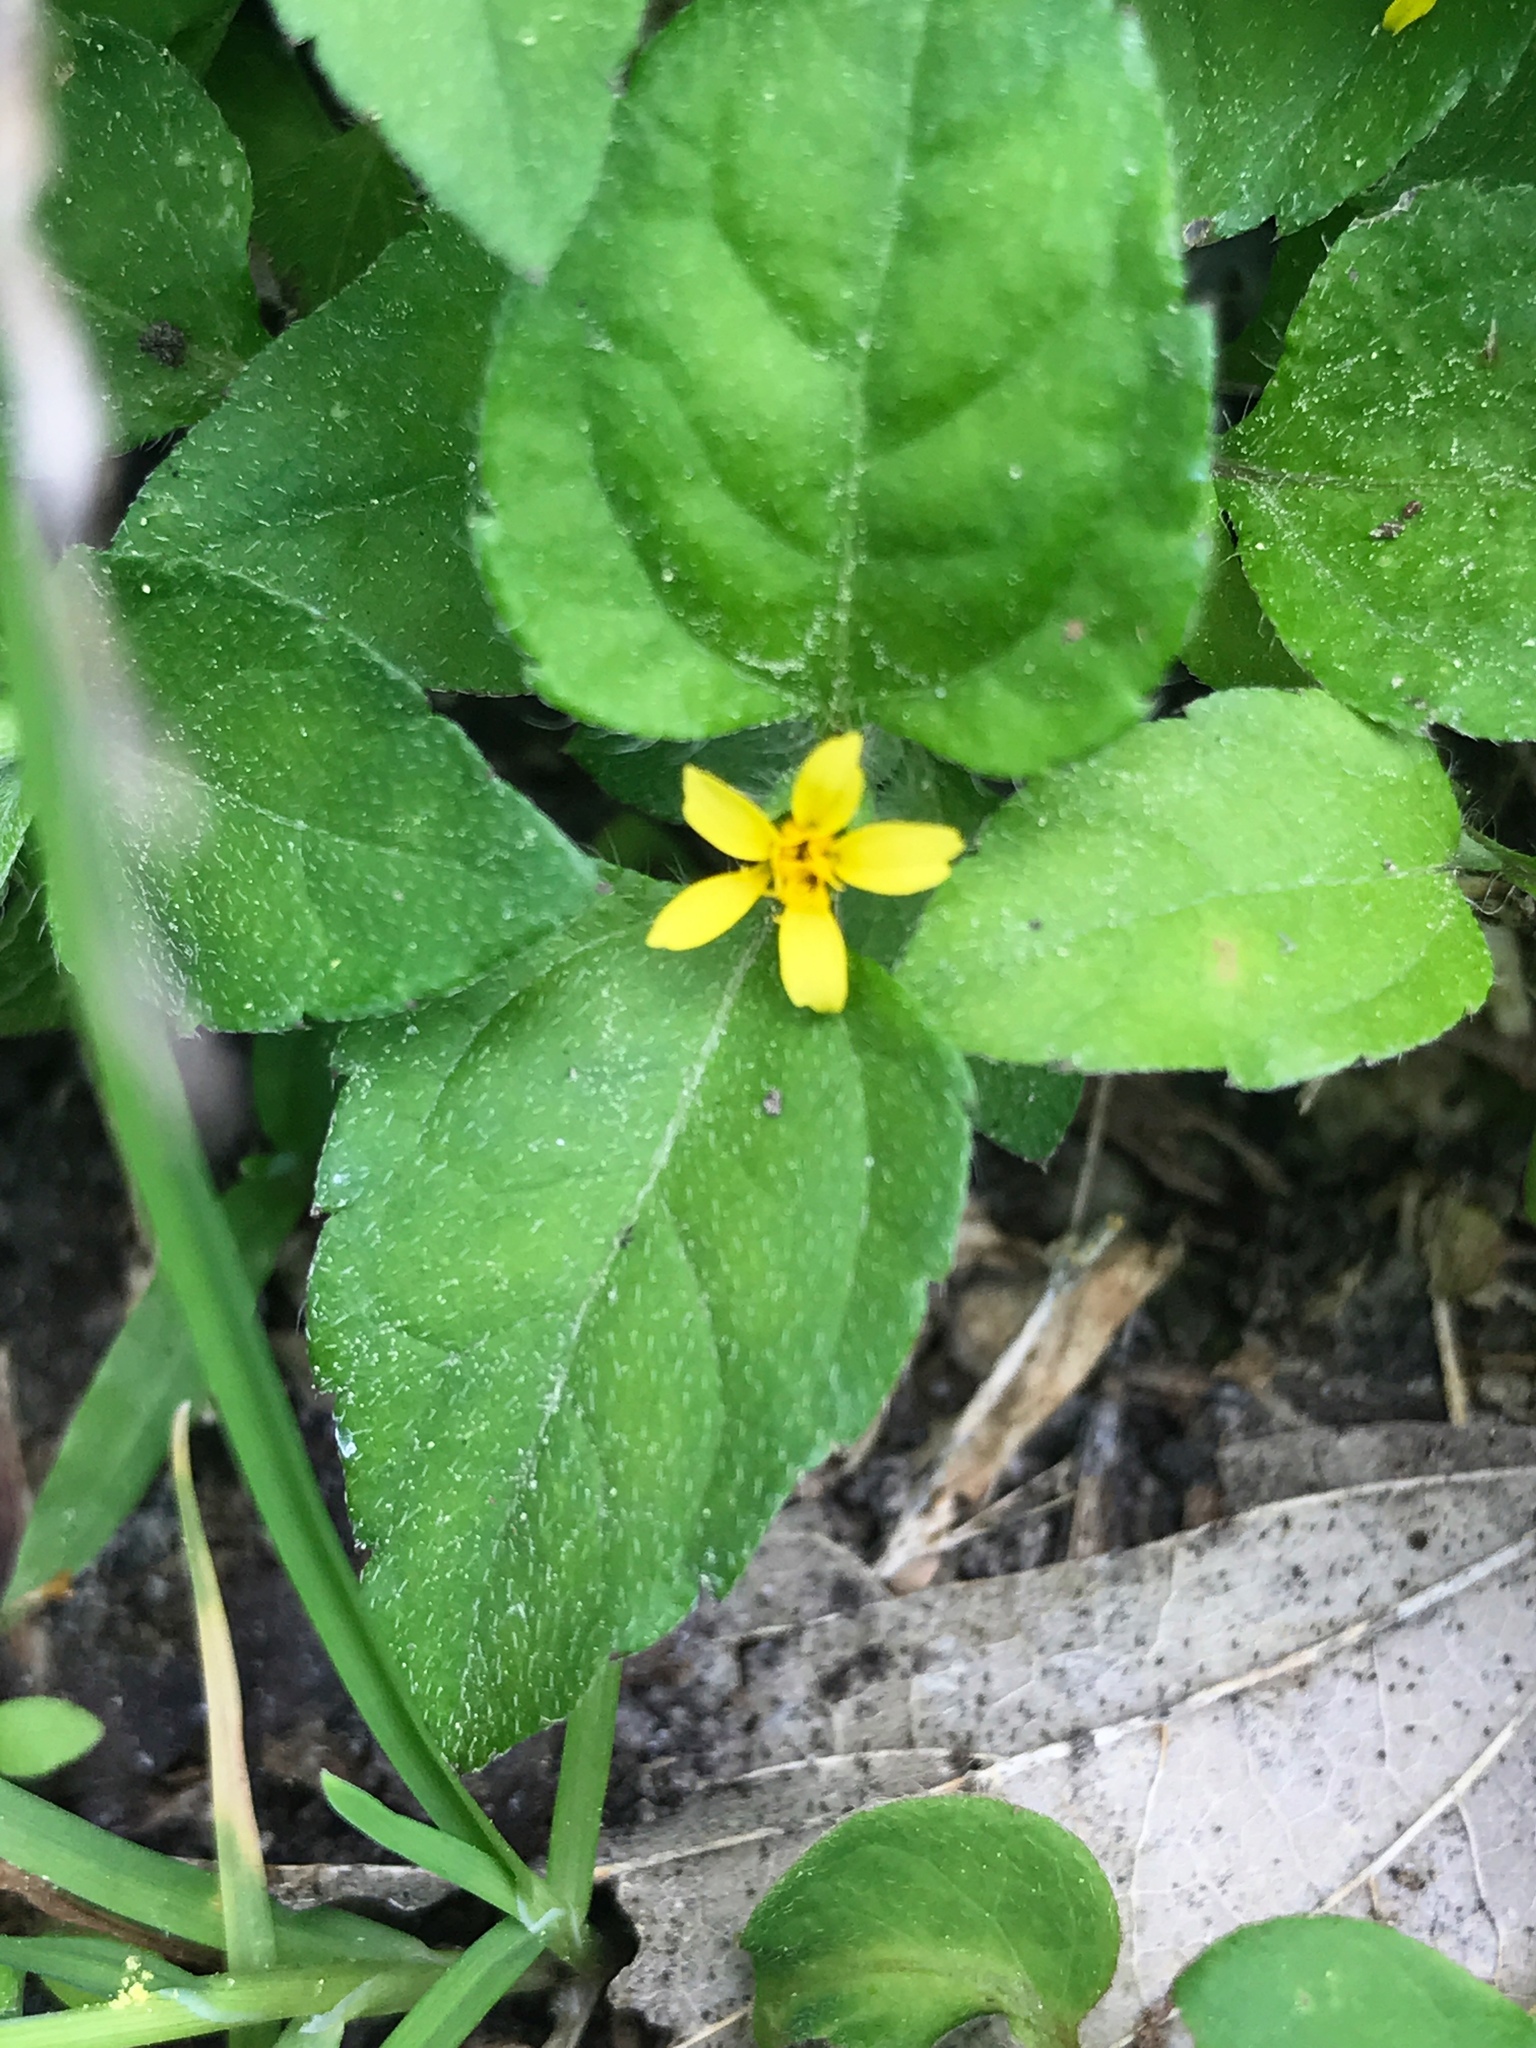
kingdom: Plantae
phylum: Tracheophyta
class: Magnoliopsida
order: Asterales
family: Asteraceae
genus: Calyptocarpus
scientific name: Calyptocarpus vialis
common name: Straggler daisy
